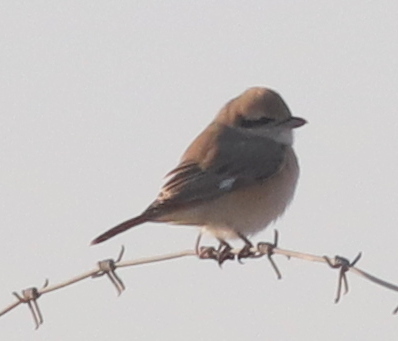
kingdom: Animalia
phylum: Chordata
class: Aves
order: Passeriformes
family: Laniidae
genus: Lanius
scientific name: Lanius isabellinus
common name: Isabelline shrike
